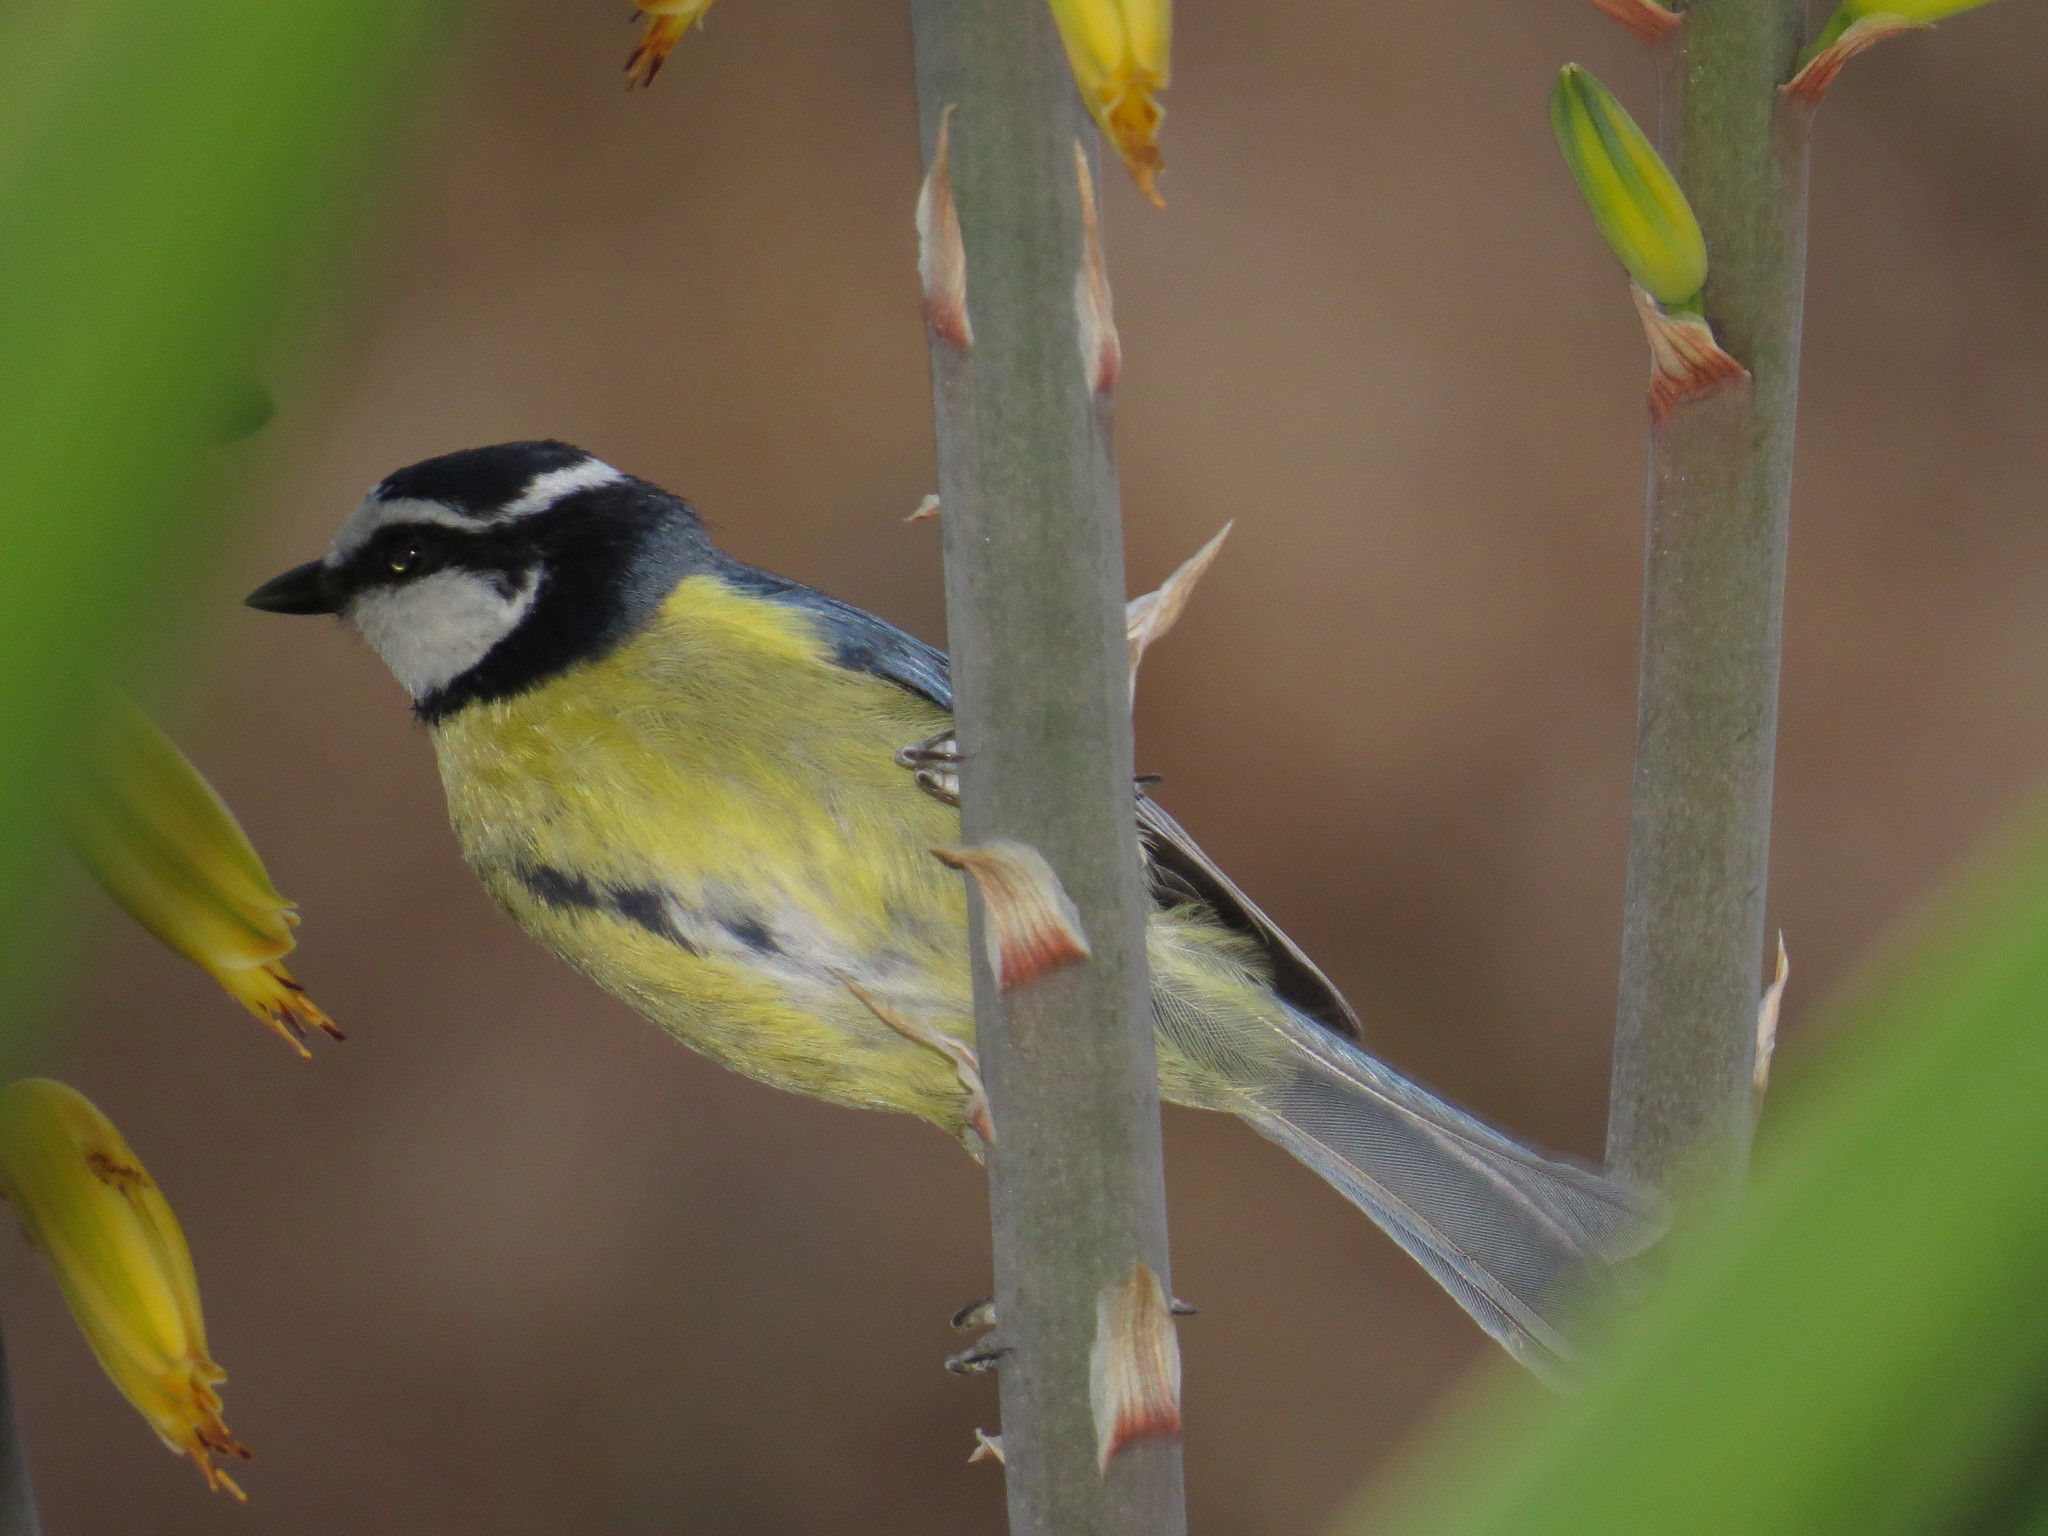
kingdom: Animalia
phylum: Chordata
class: Aves
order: Passeriformes
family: Paridae
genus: Cyanistes
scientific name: Cyanistes teneriffae
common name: African blue tit
